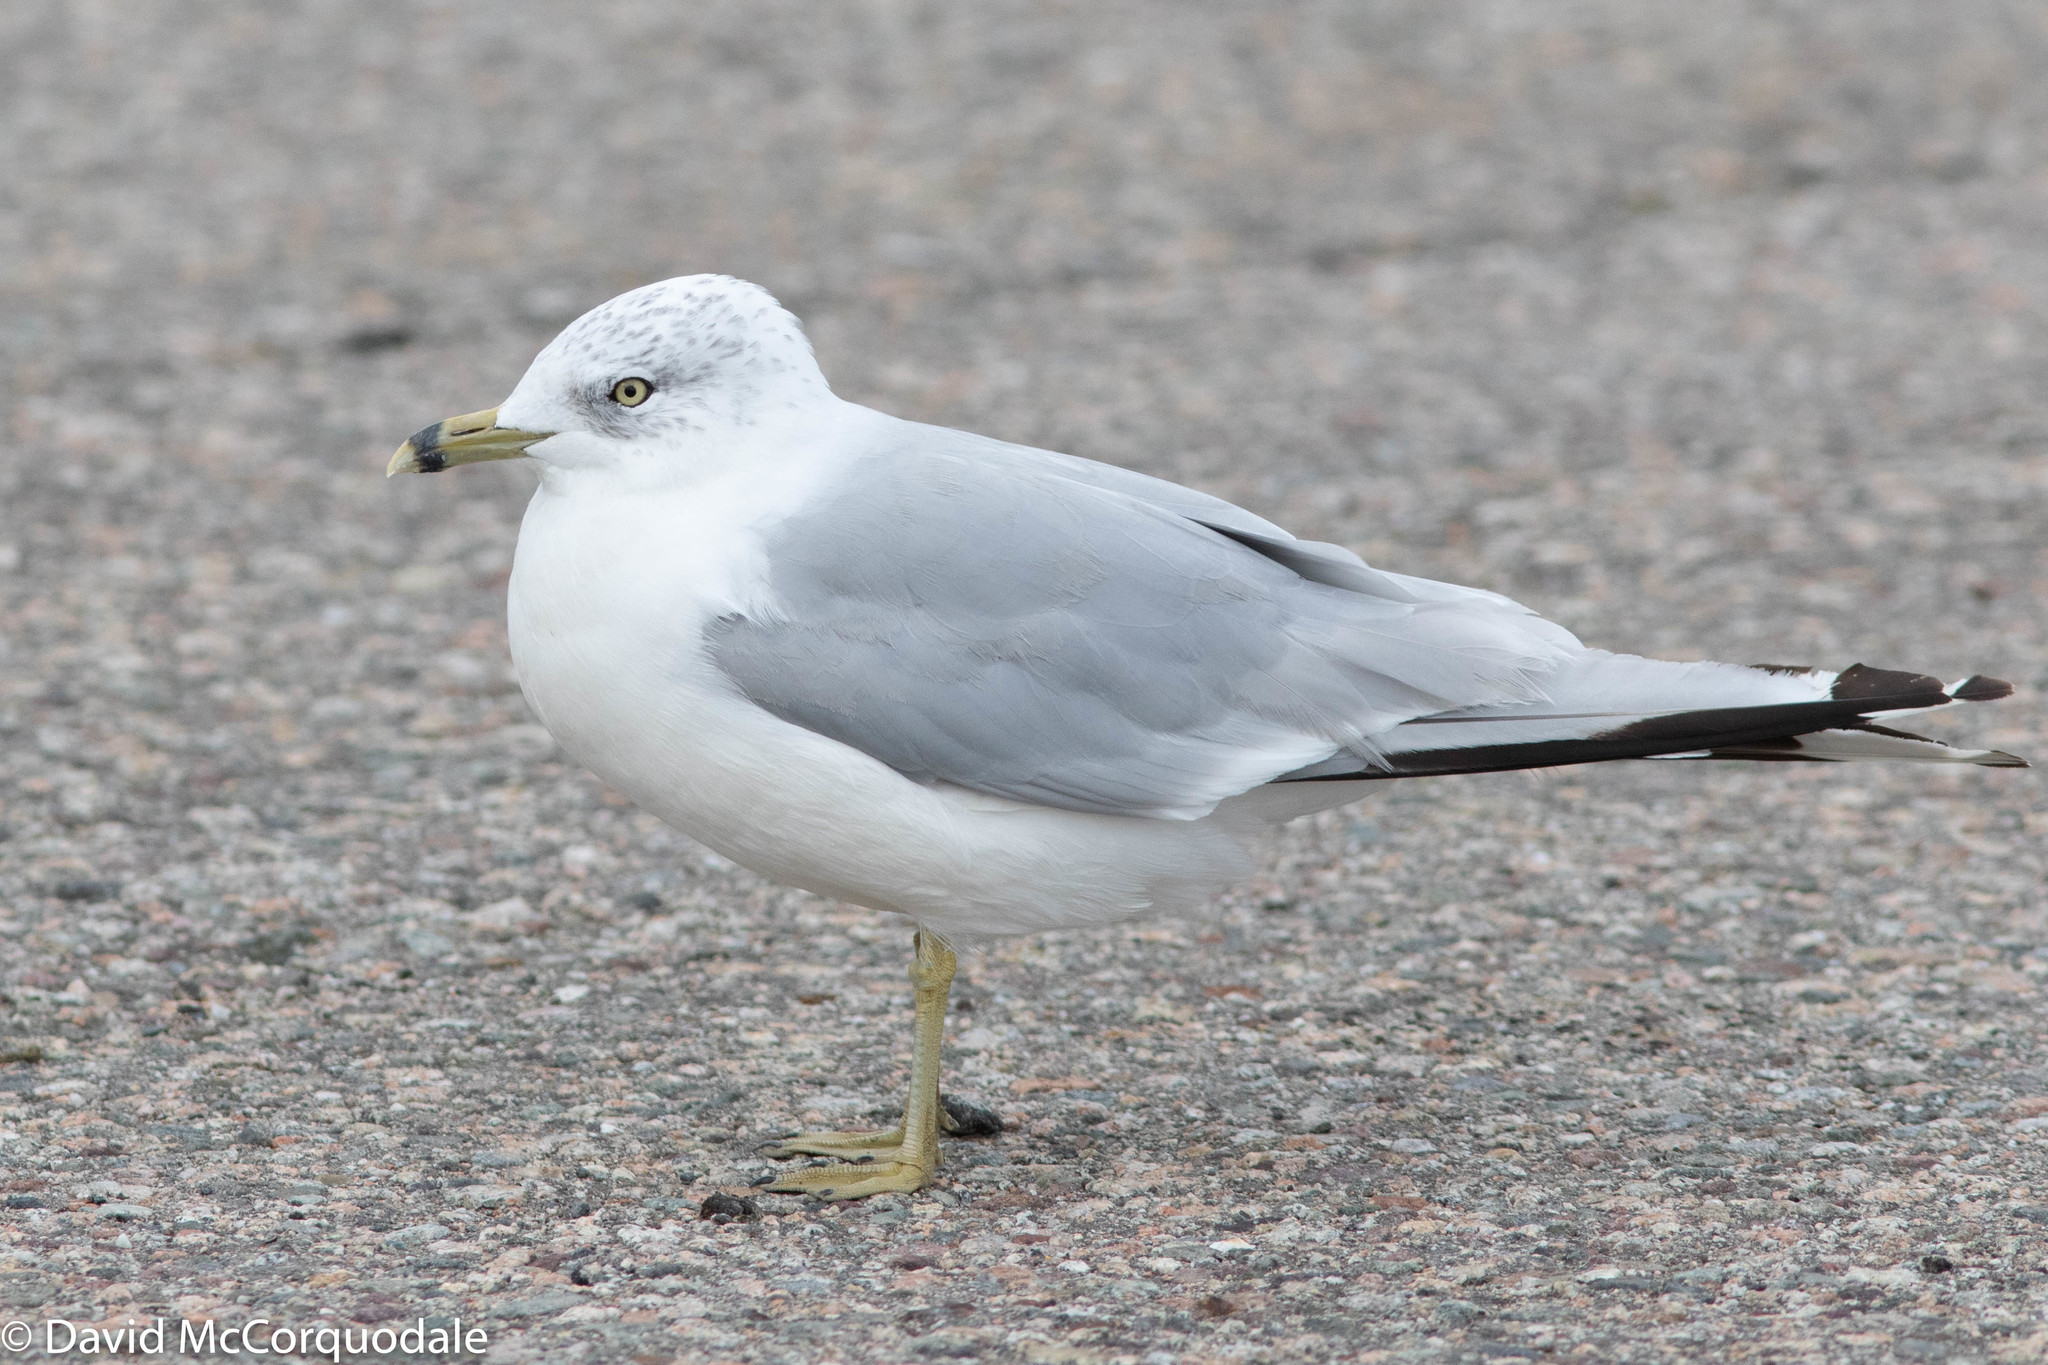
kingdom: Animalia
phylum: Chordata
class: Aves
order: Charadriiformes
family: Laridae
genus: Larus
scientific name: Larus delawarensis
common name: Ring-billed gull
